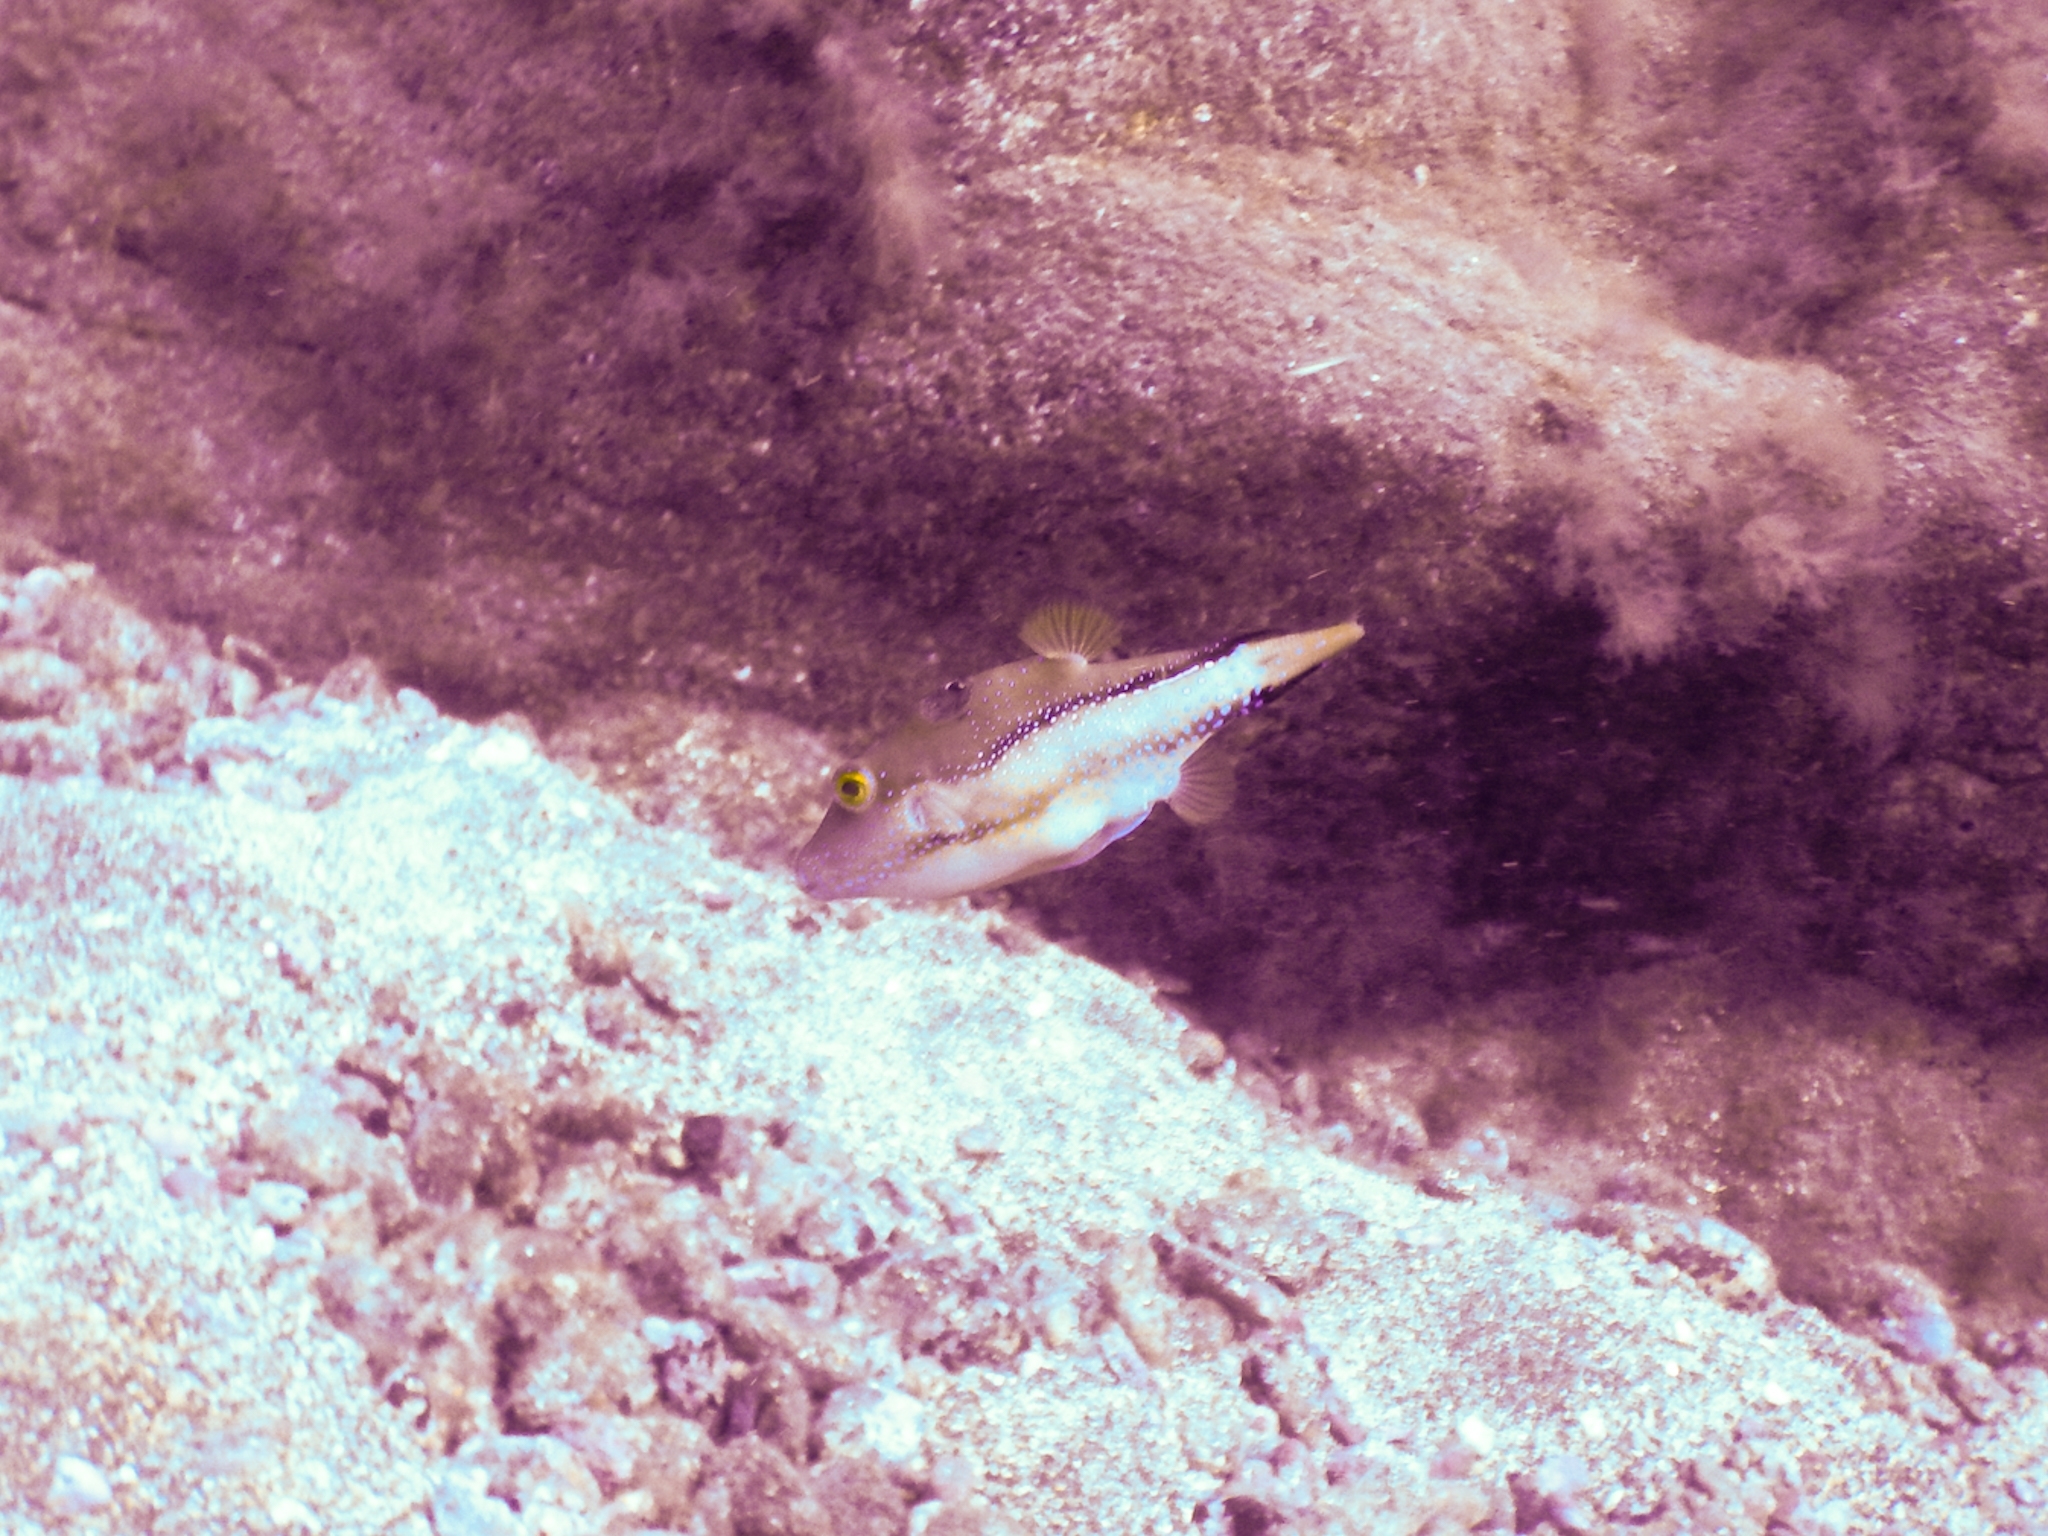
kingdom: Animalia
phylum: Chordata
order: Tetraodontiformes
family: Tetraodontidae
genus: Canthigaster
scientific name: Canthigaster capistrata
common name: Macaronesian sharpnose-puffer
